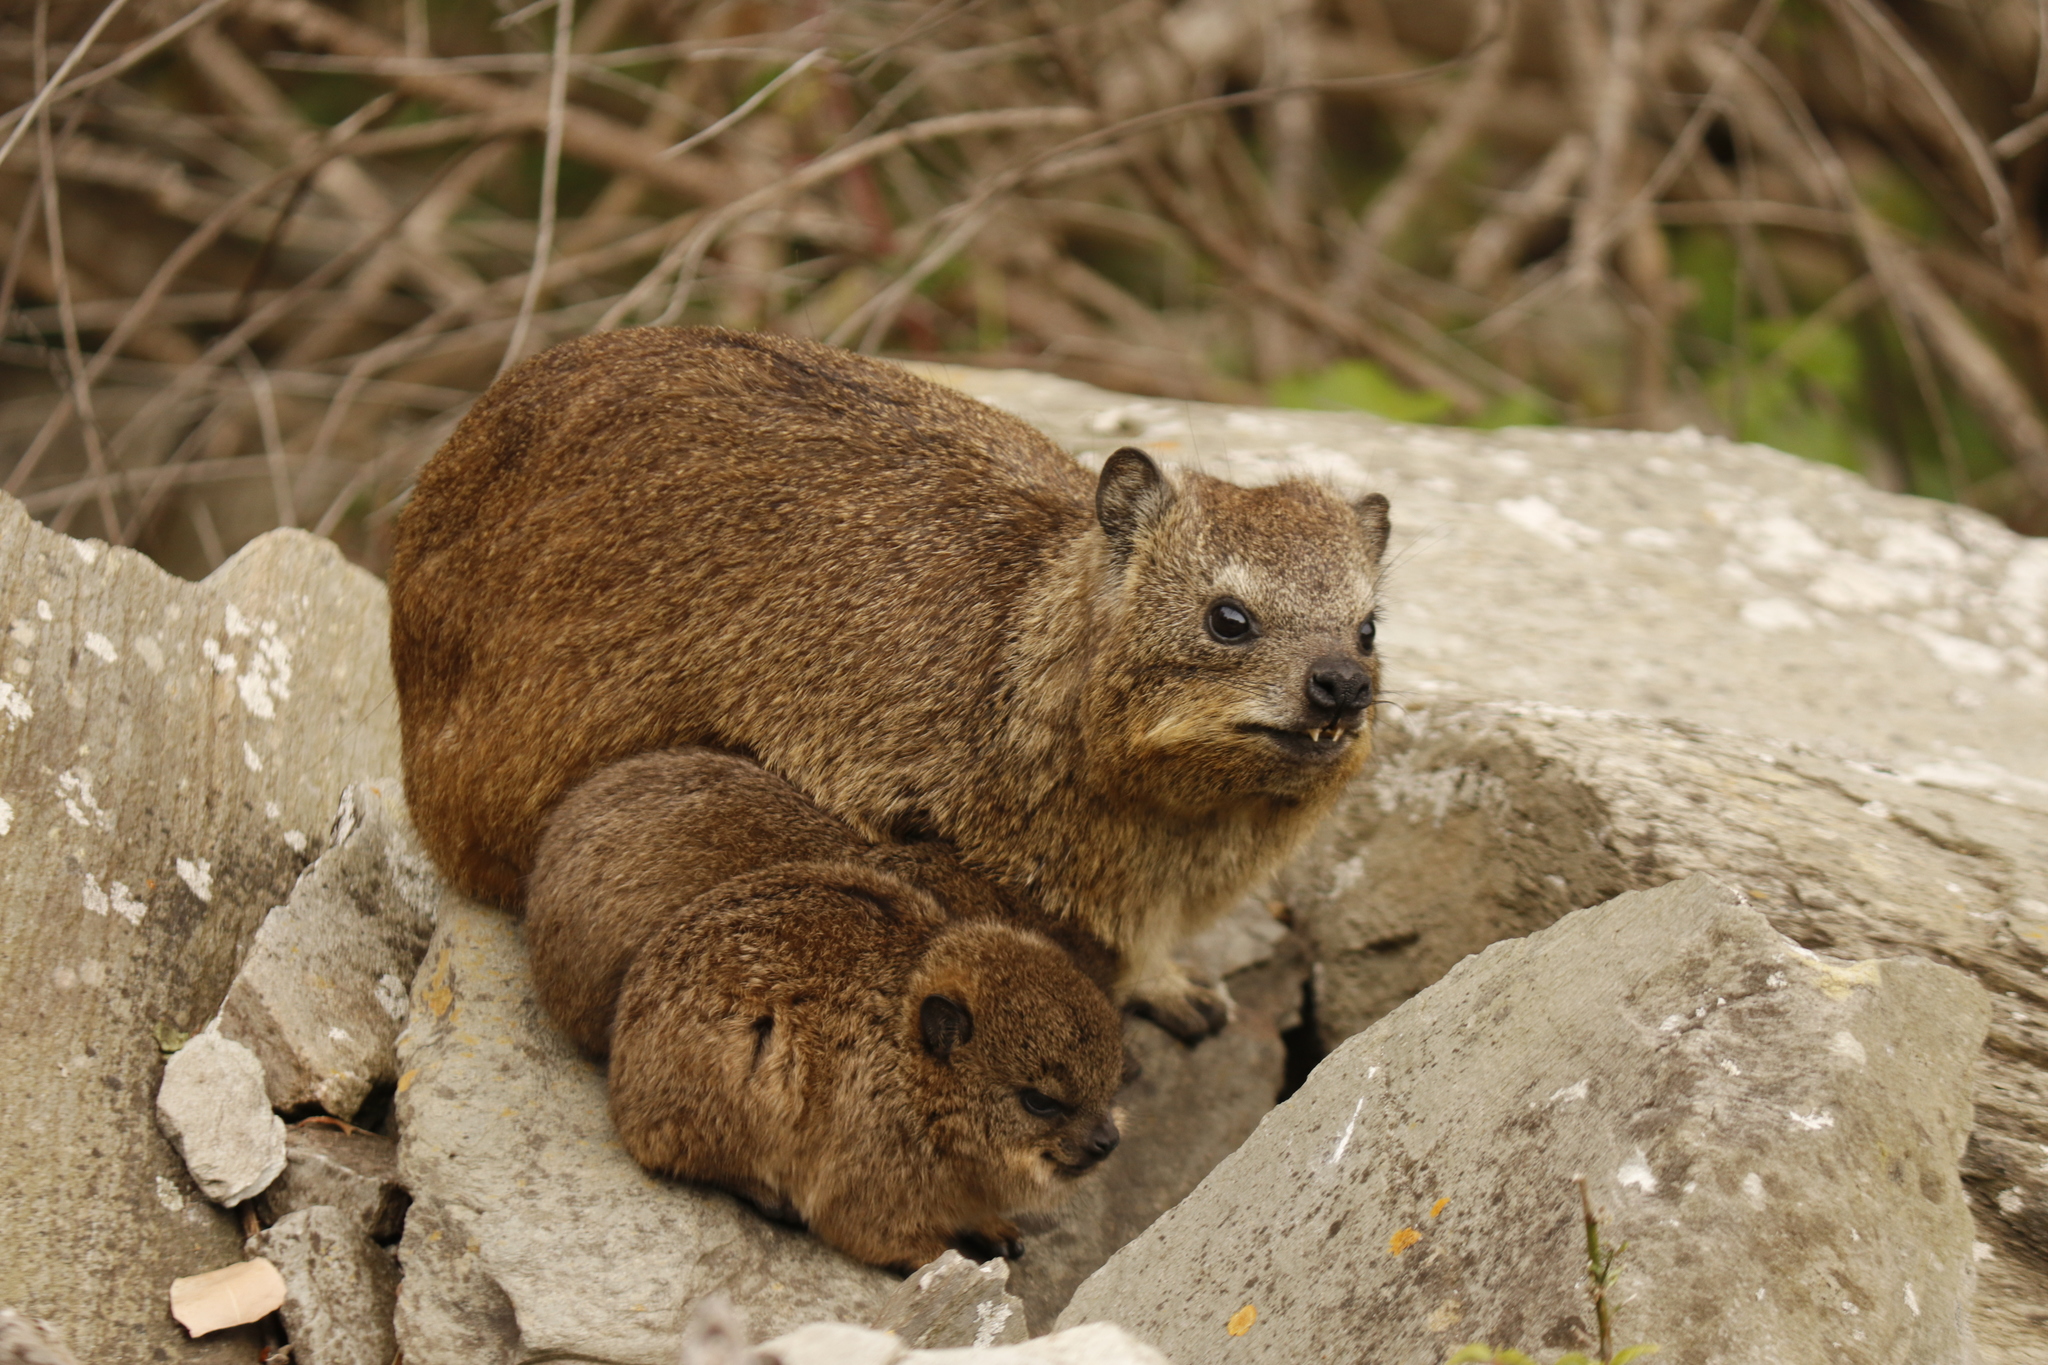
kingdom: Animalia
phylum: Chordata
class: Mammalia
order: Hyracoidea
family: Procaviidae
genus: Procavia
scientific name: Procavia capensis
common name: Rock hyrax
